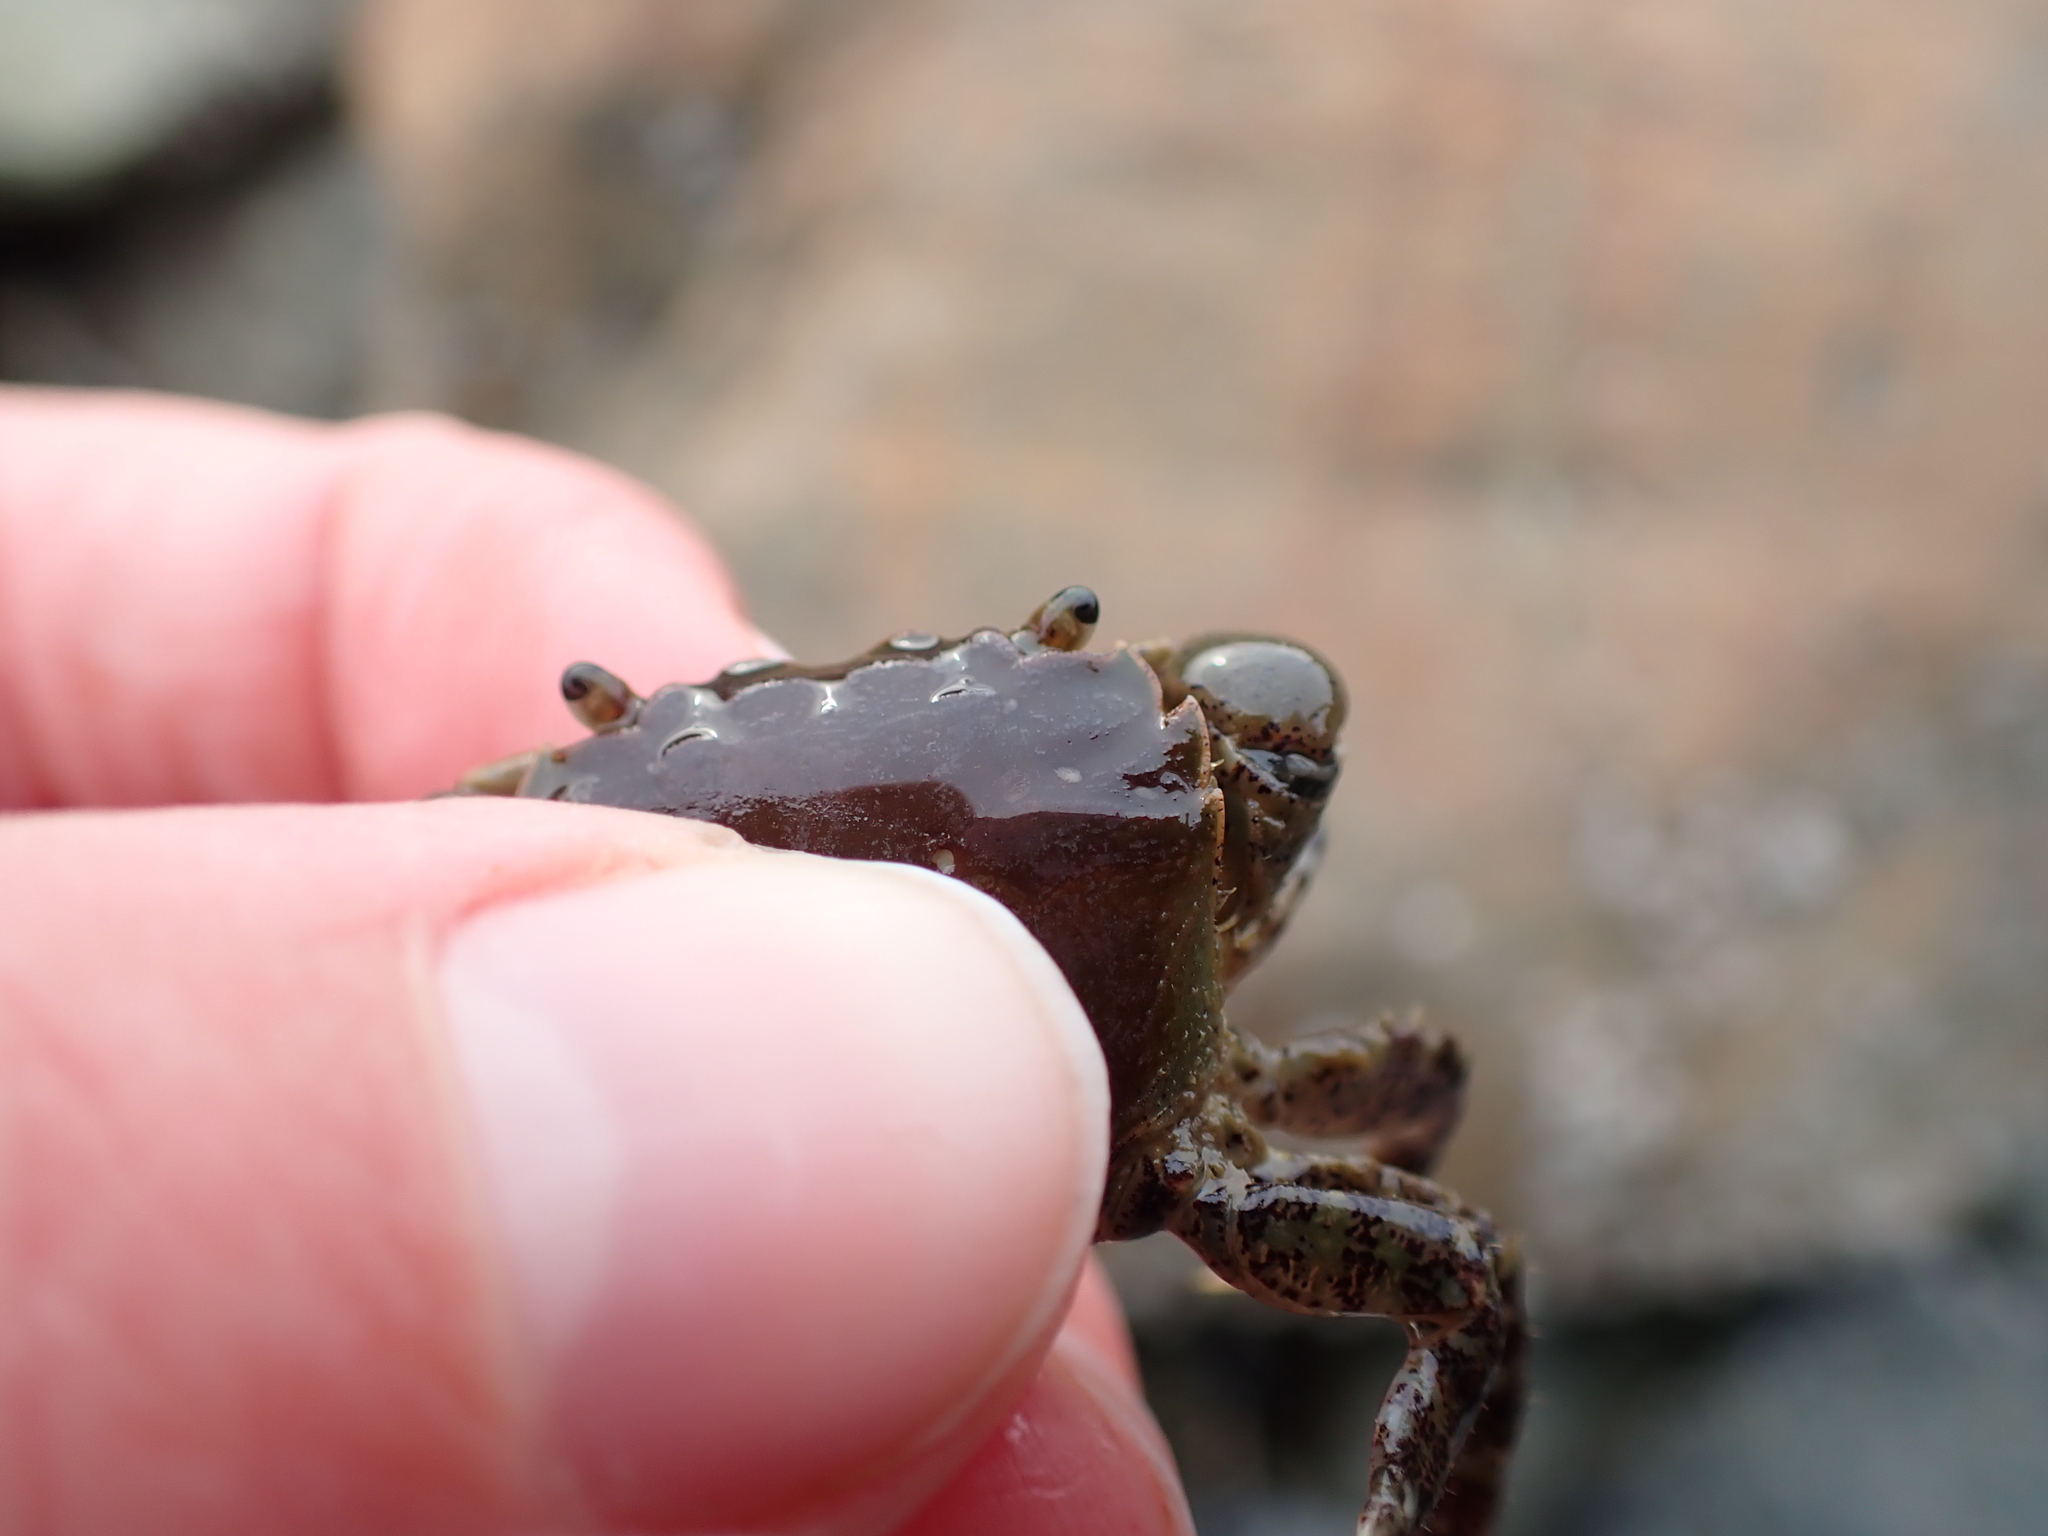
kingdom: Animalia
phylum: Arthropoda
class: Malacostraca
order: Decapoda
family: Varunidae
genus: Hemigrapsus
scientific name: Hemigrapsus oregonensis
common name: Yellow shore crab
